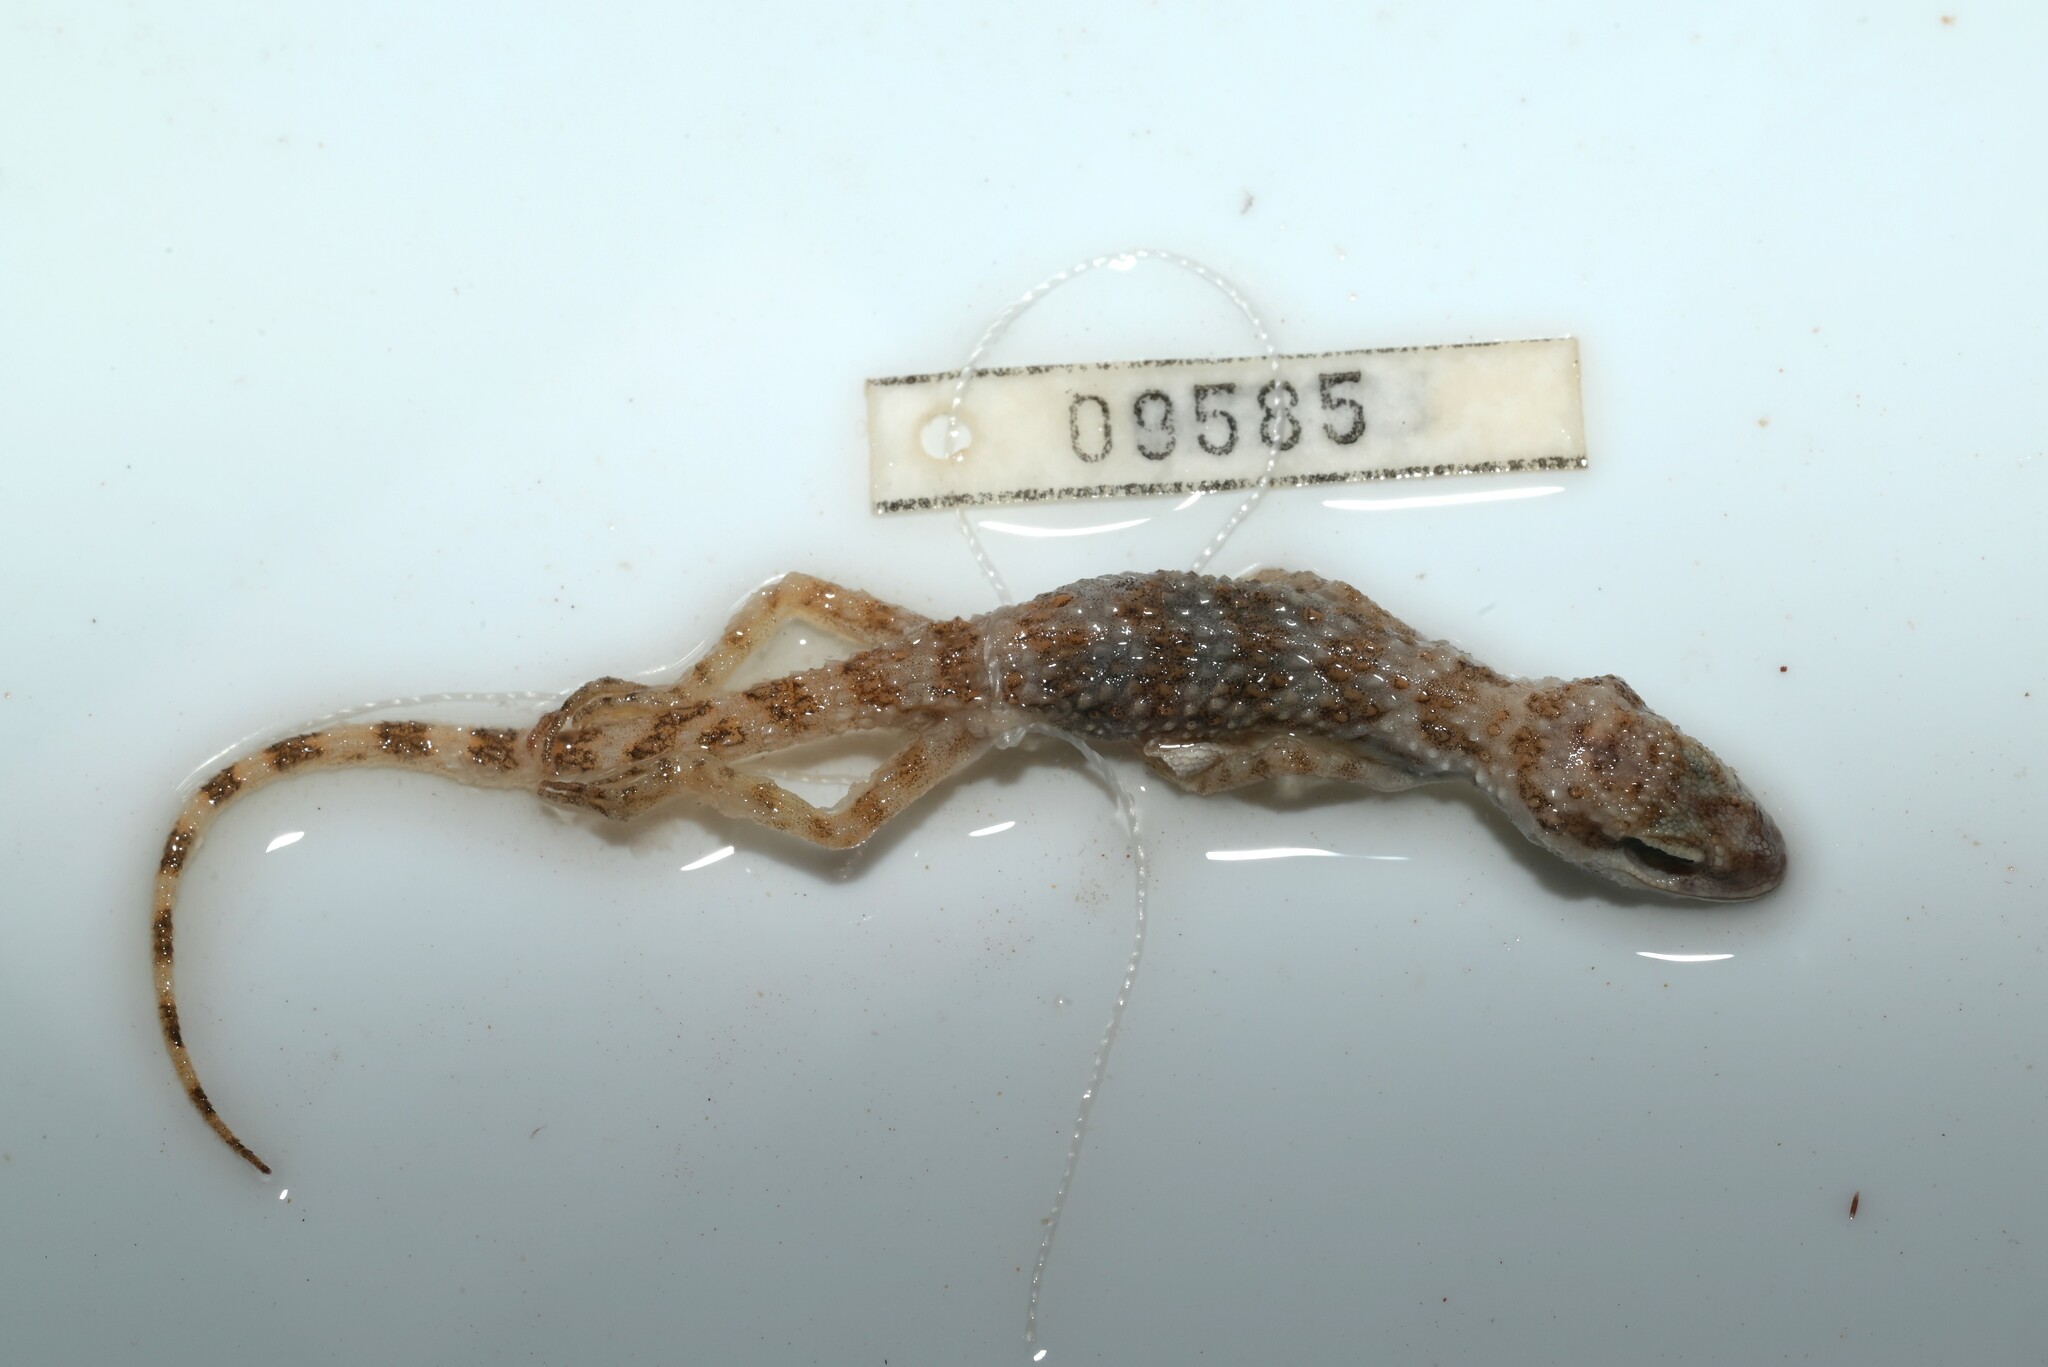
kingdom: Animalia
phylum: Chordata
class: Squamata
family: Gekkonidae
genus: Bunopus
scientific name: Bunopus tuberculatus
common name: Southern tuberculated gecko
